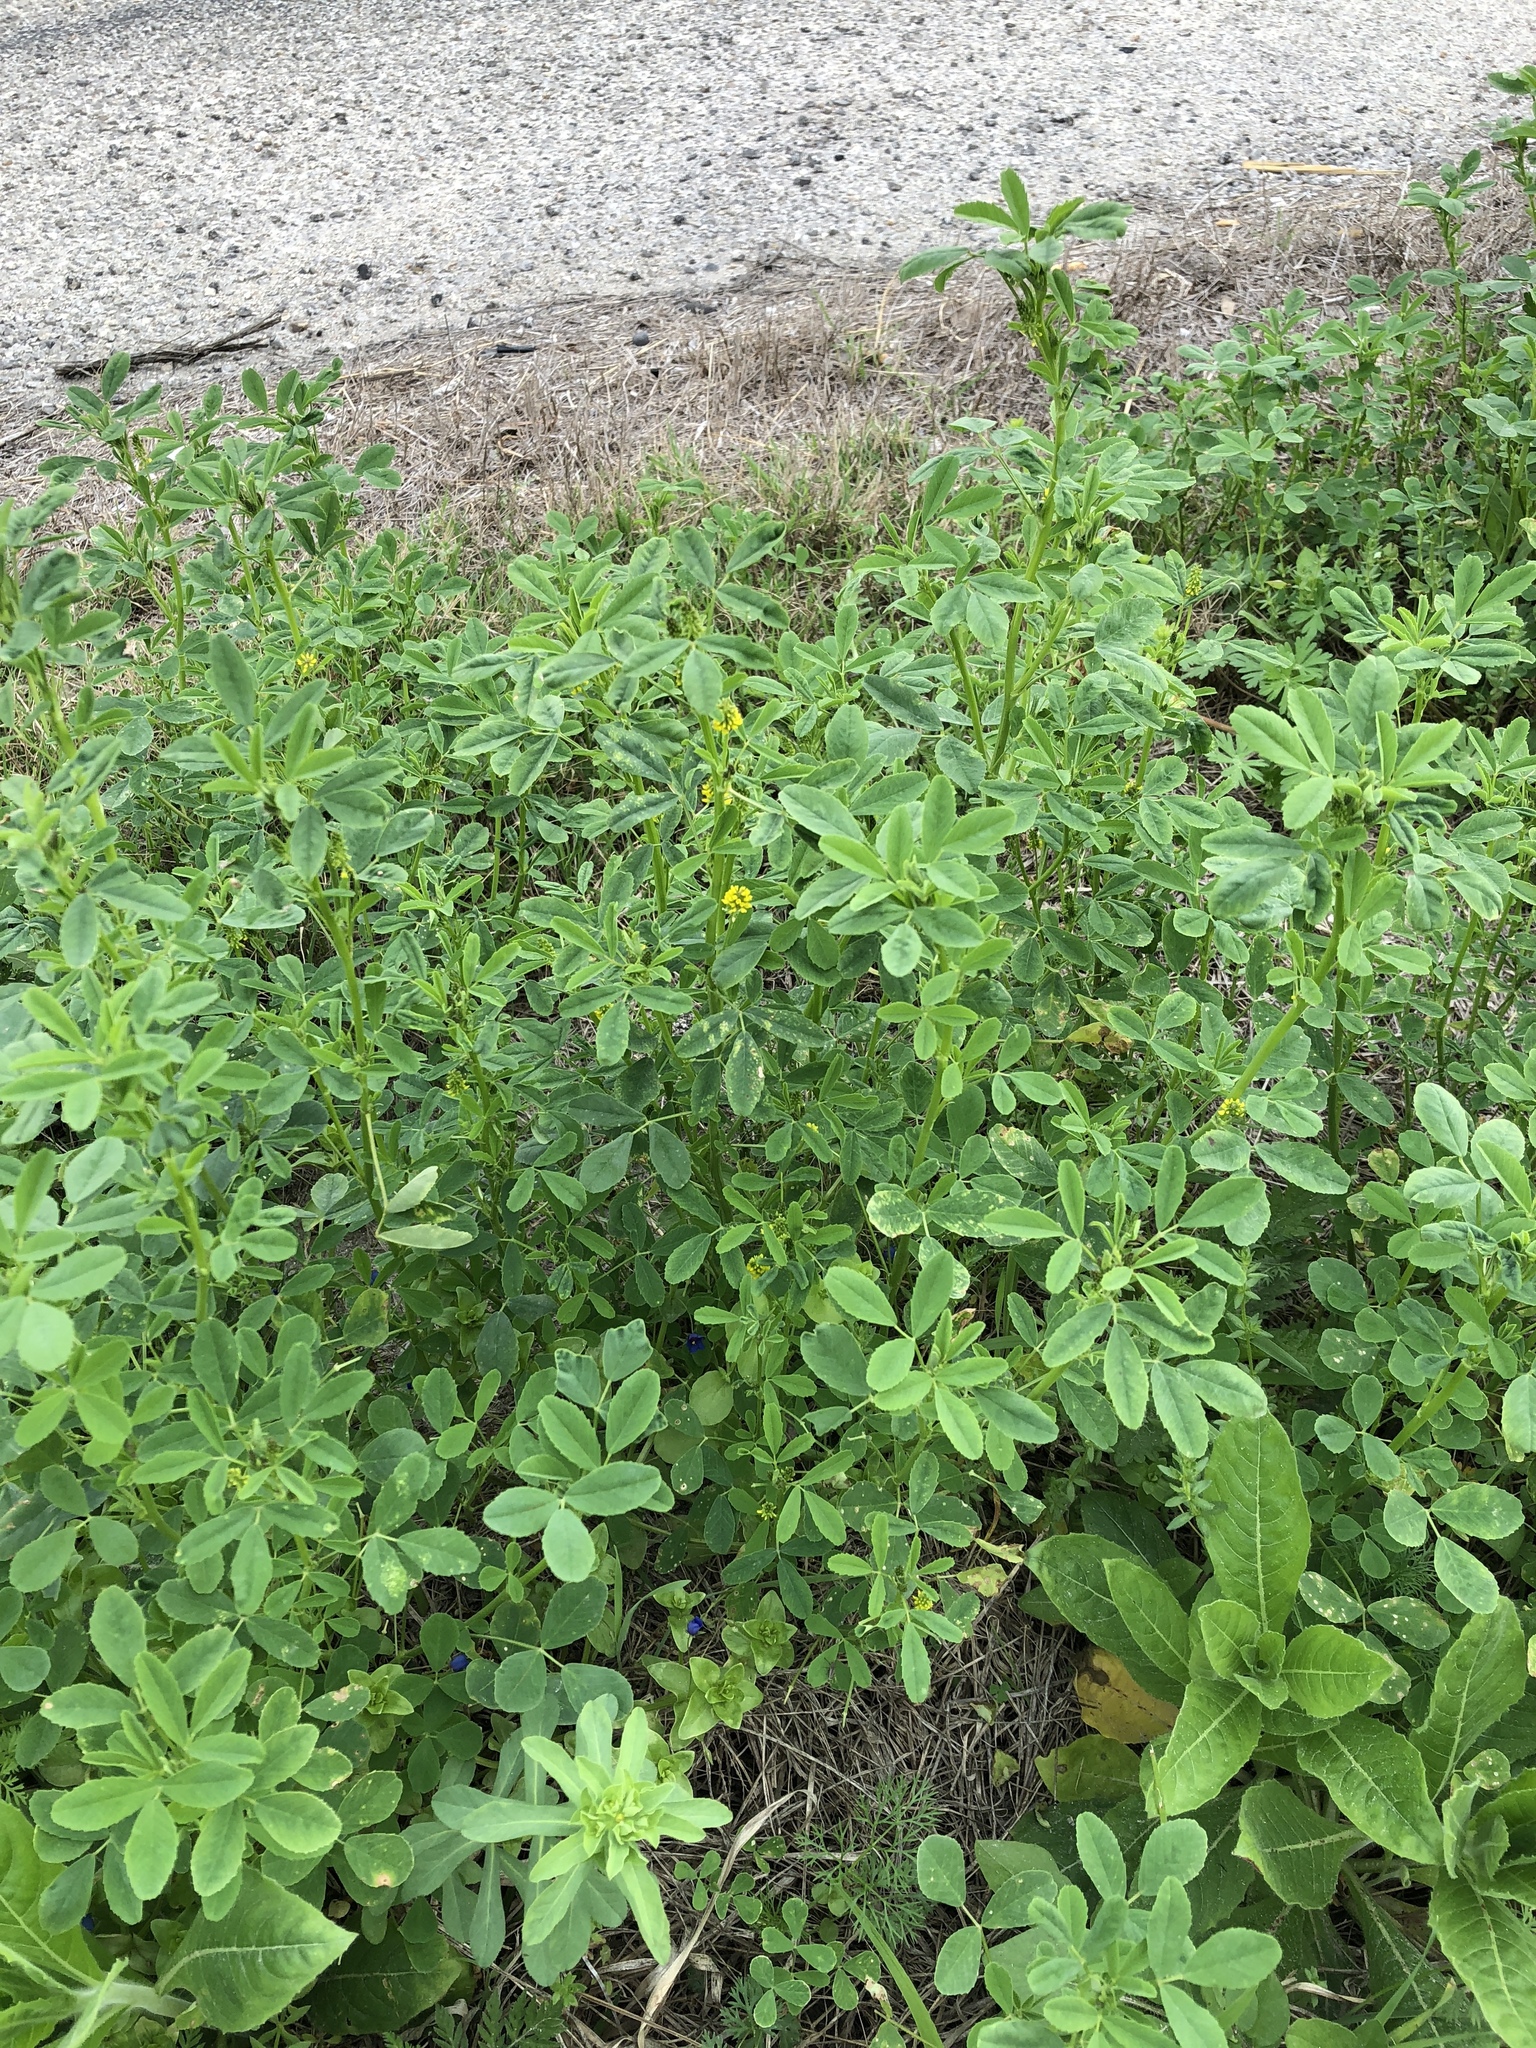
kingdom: Plantae
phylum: Tracheophyta
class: Magnoliopsida
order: Fabales
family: Fabaceae
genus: Melilotus
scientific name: Melilotus indicus
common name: Small melilot
